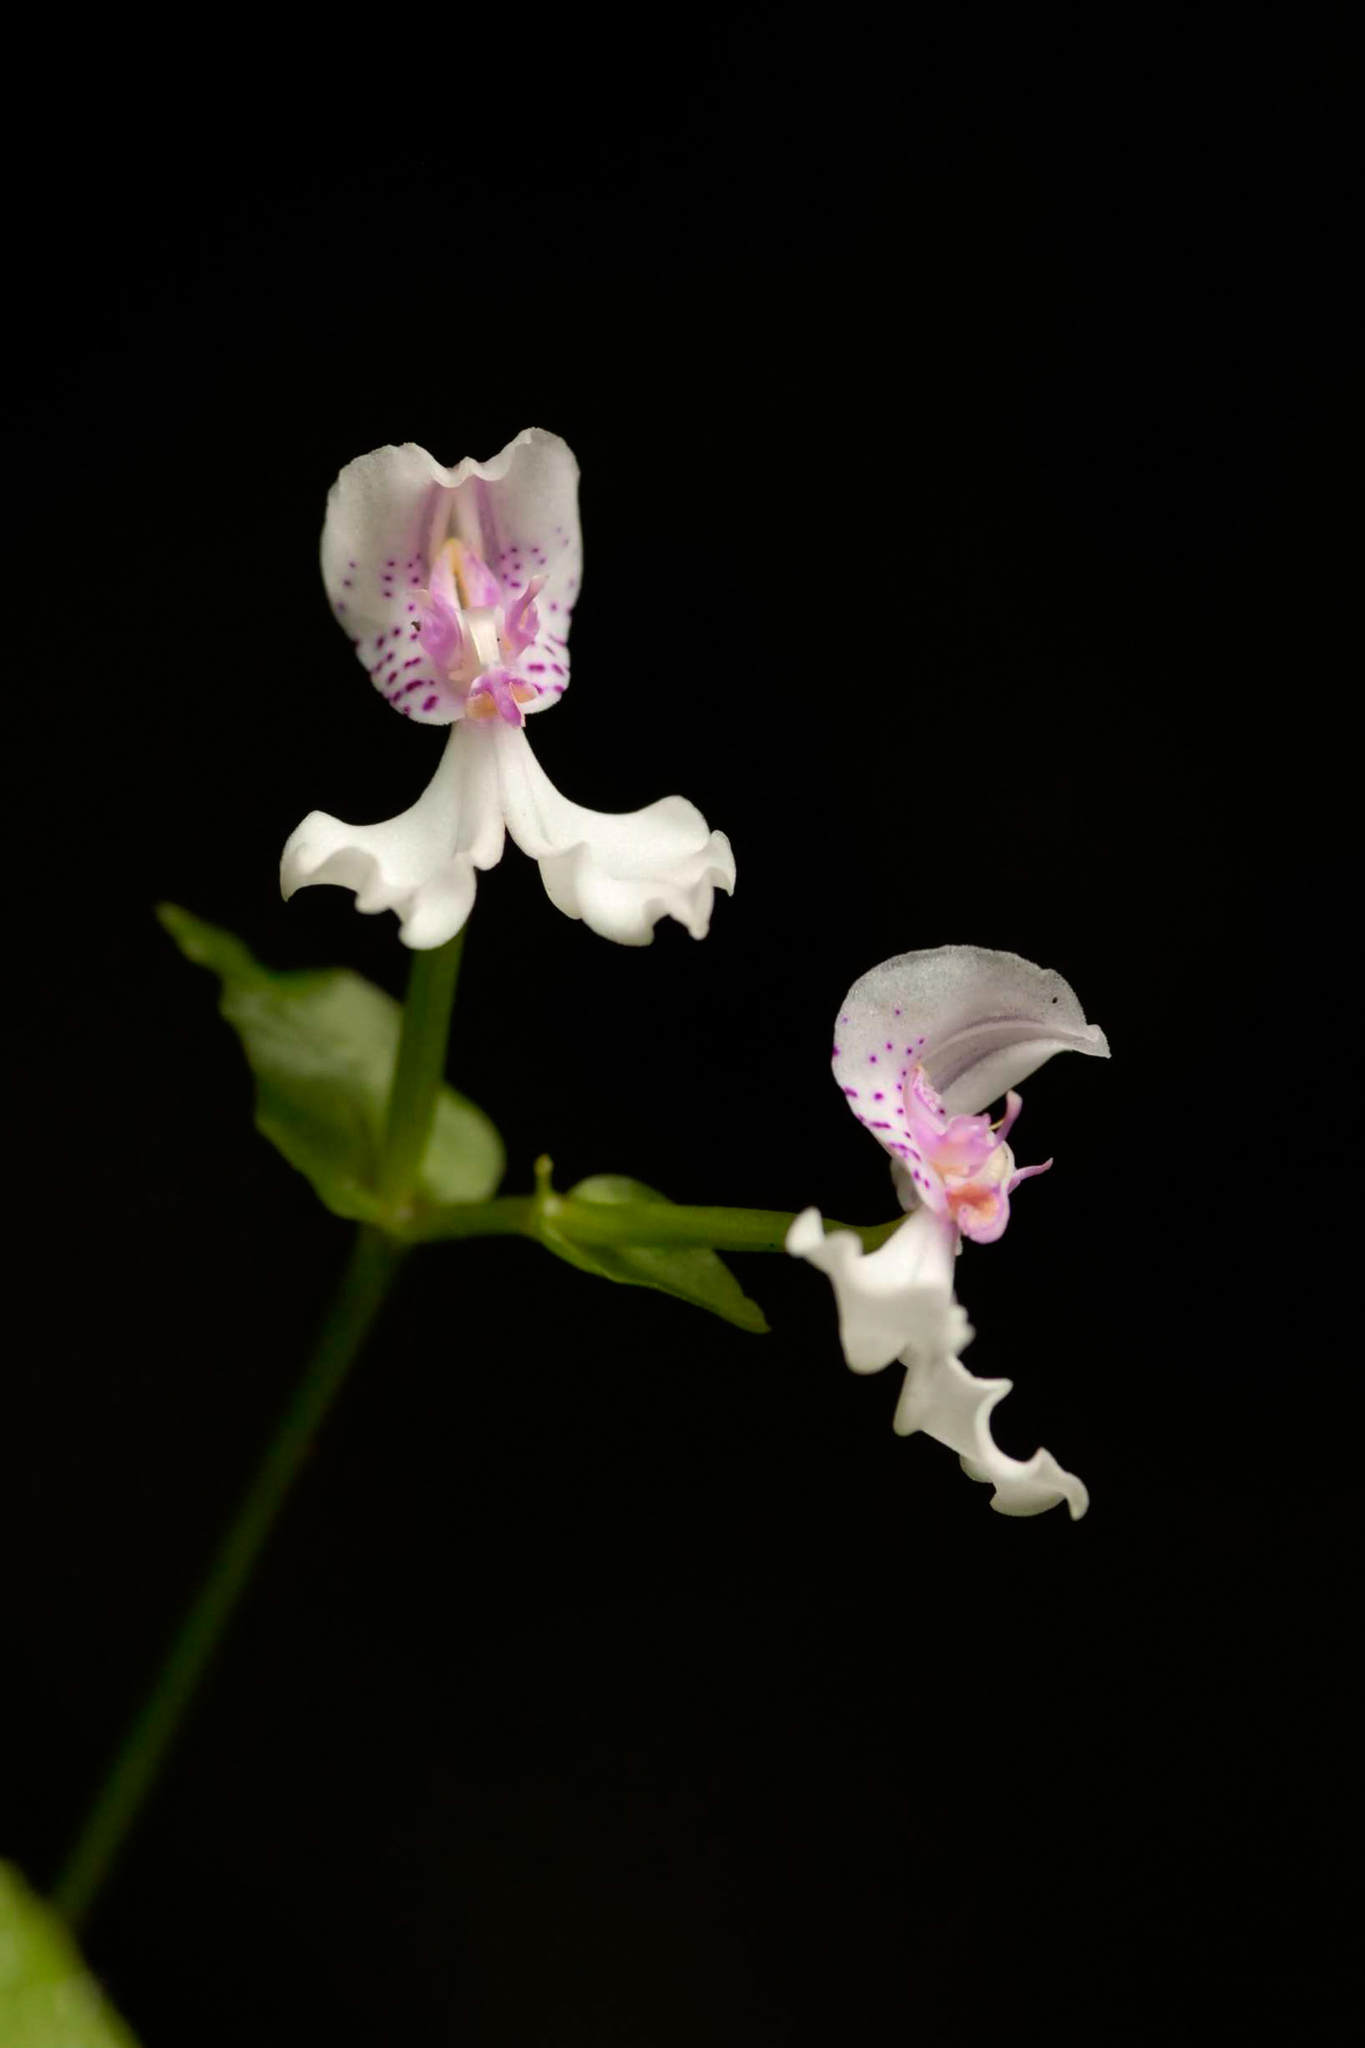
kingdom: Plantae
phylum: Tracheophyta
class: Liliopsida
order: Asparagales
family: Orchidaceae
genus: Disperis
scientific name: Disperis oppositifolia
